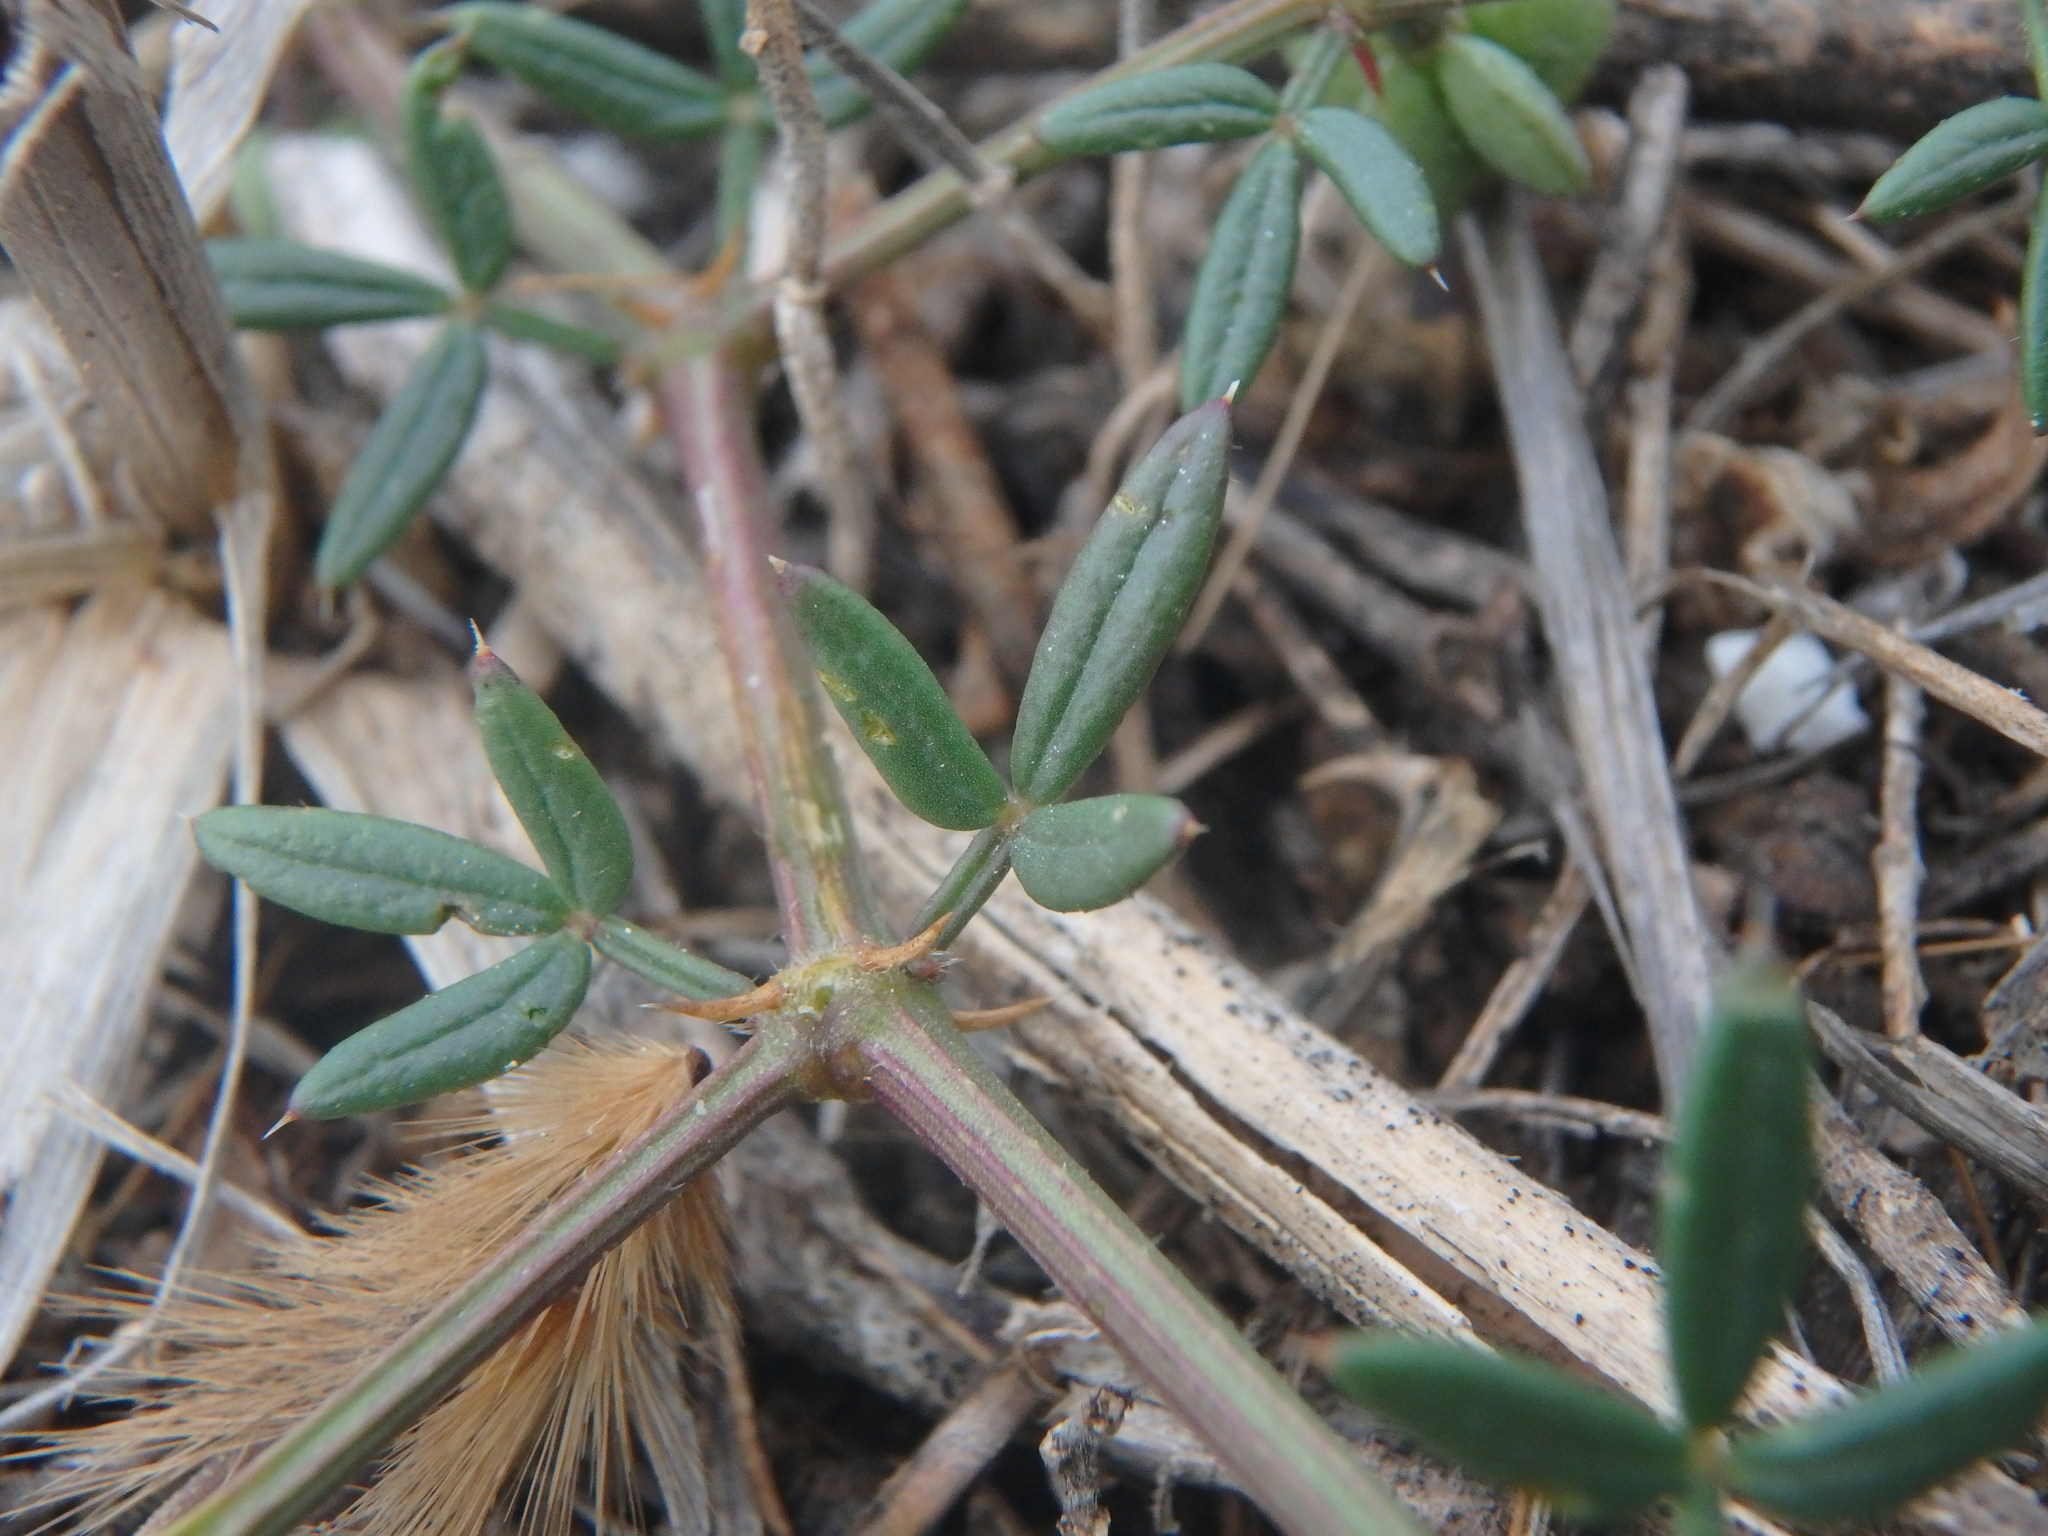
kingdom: Plantae
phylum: Tracheophyta
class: Magnoliopsida
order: Zygophyllales
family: Zygophyllaceae
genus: Fagonia
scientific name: Fagonia cretica
